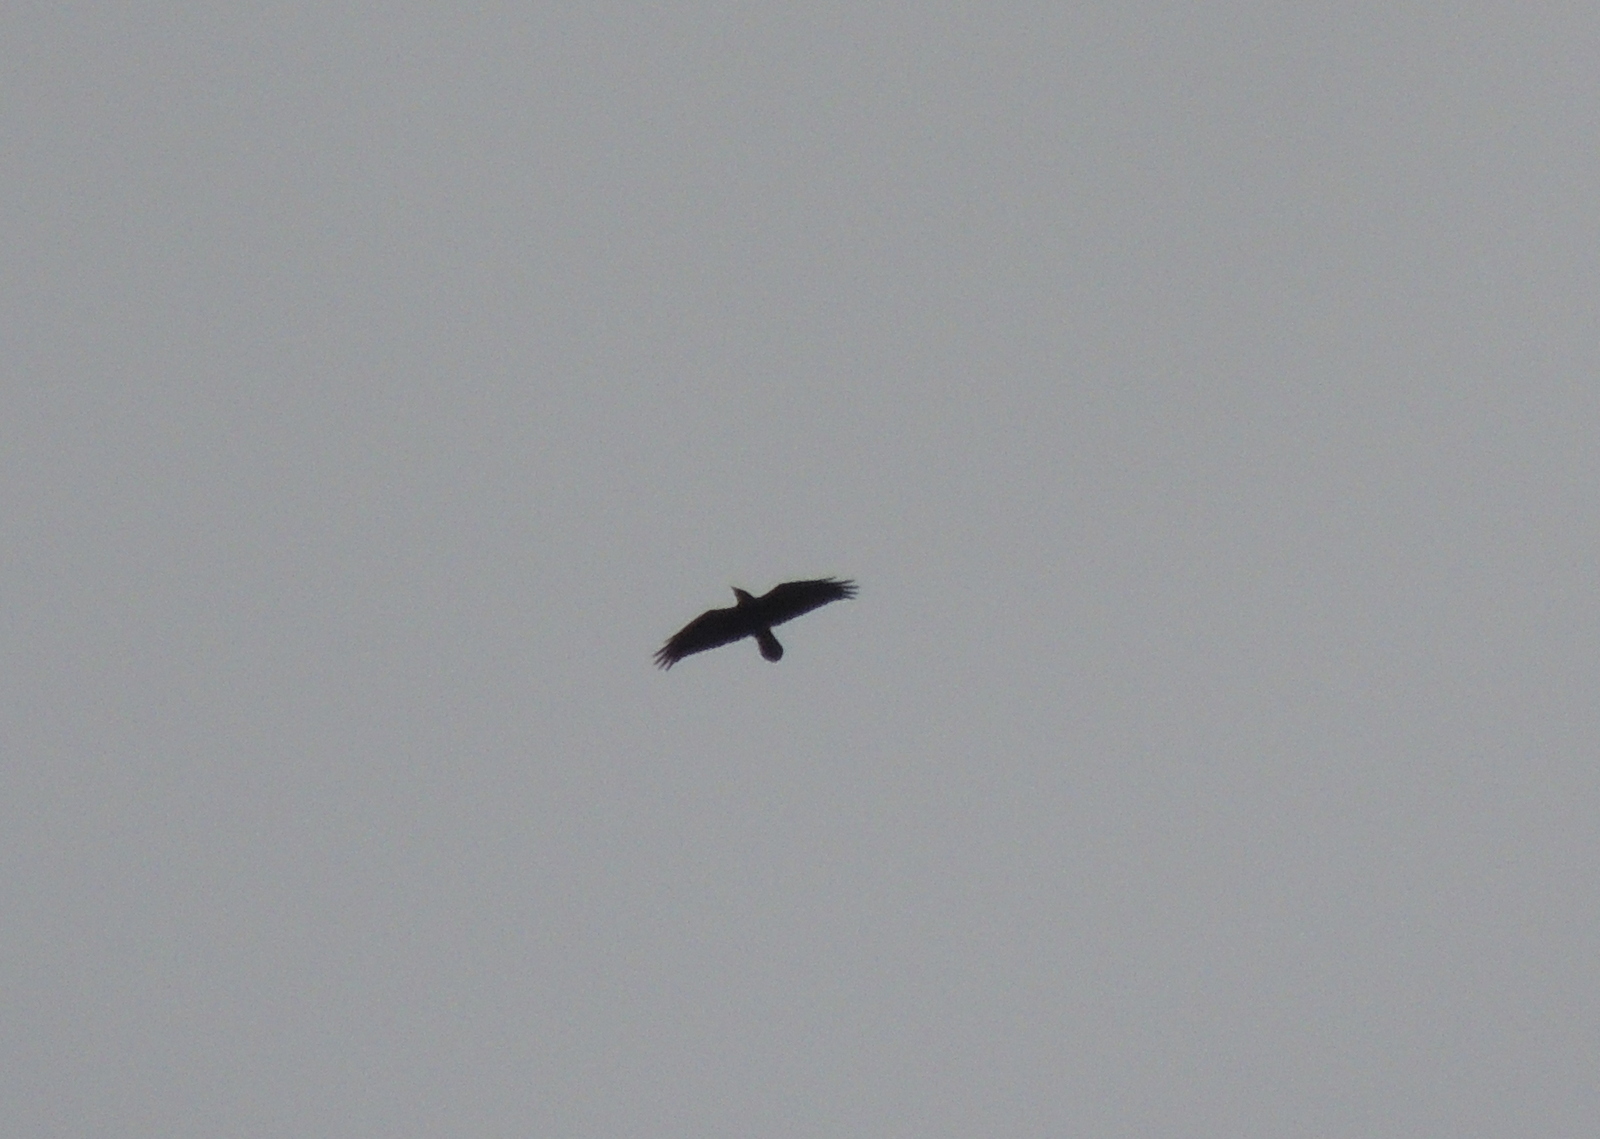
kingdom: Animalia
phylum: Chordata
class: Aves
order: Passeriformes
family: Corvidae
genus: Corvus
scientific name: Corvus corax
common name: Common raven
